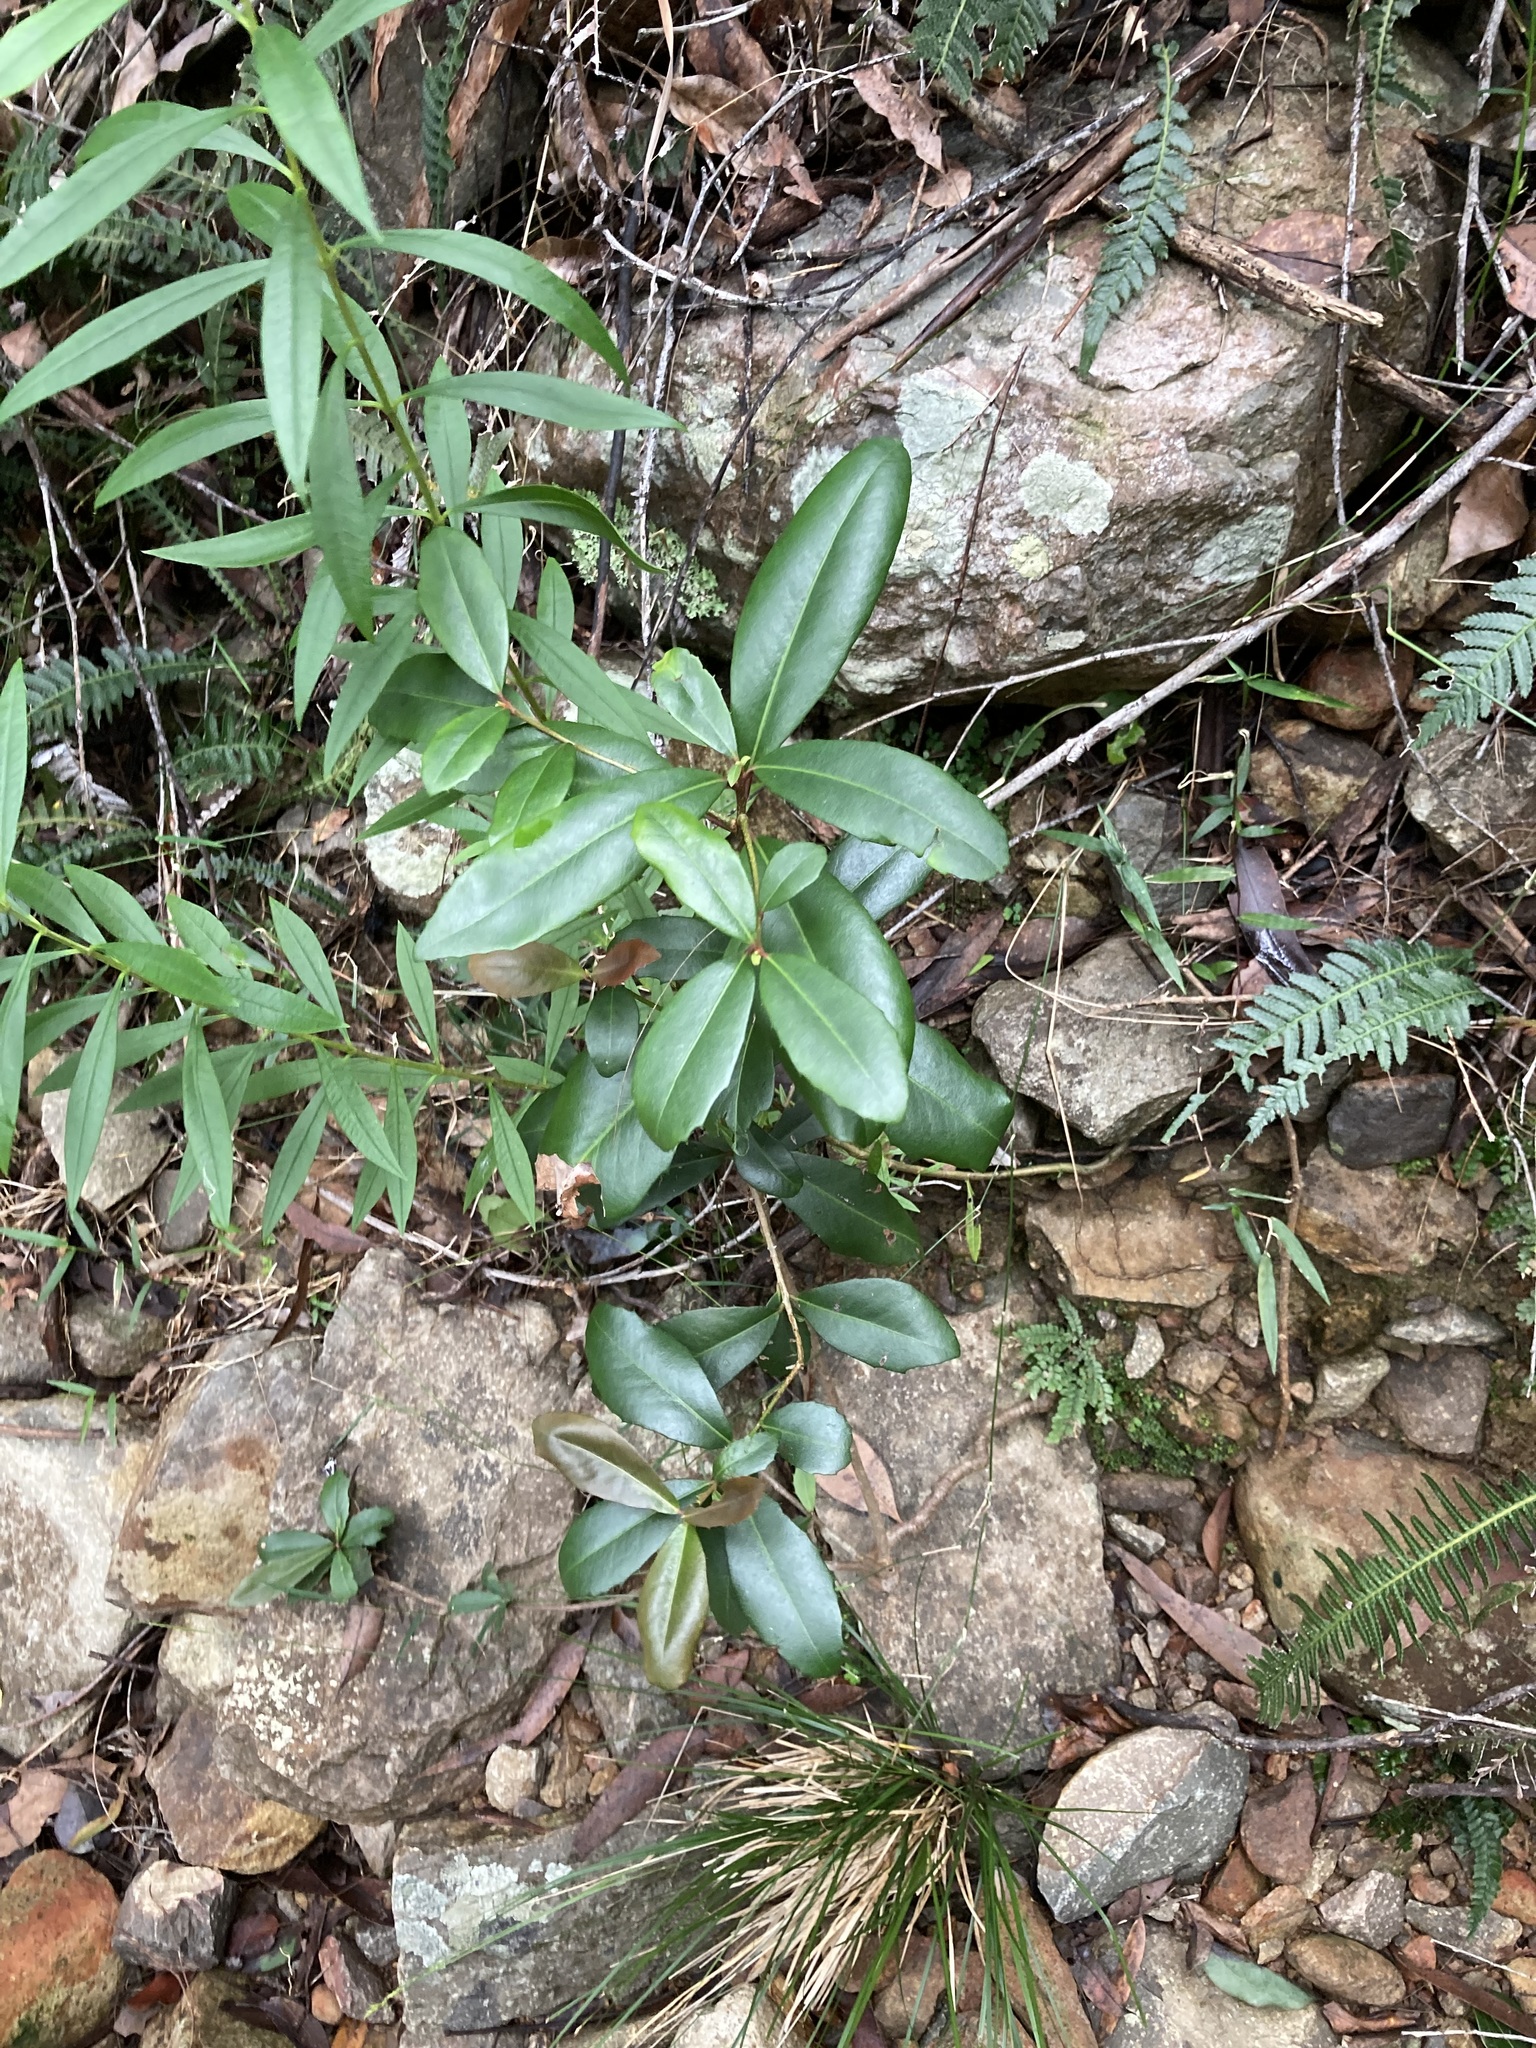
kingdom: Plantae
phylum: Tracheophyta
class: Magnoliopsida
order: Ericales
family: Primulaceae
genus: Myrsine
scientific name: Myrsine variabilis
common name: Brush muttonwood
